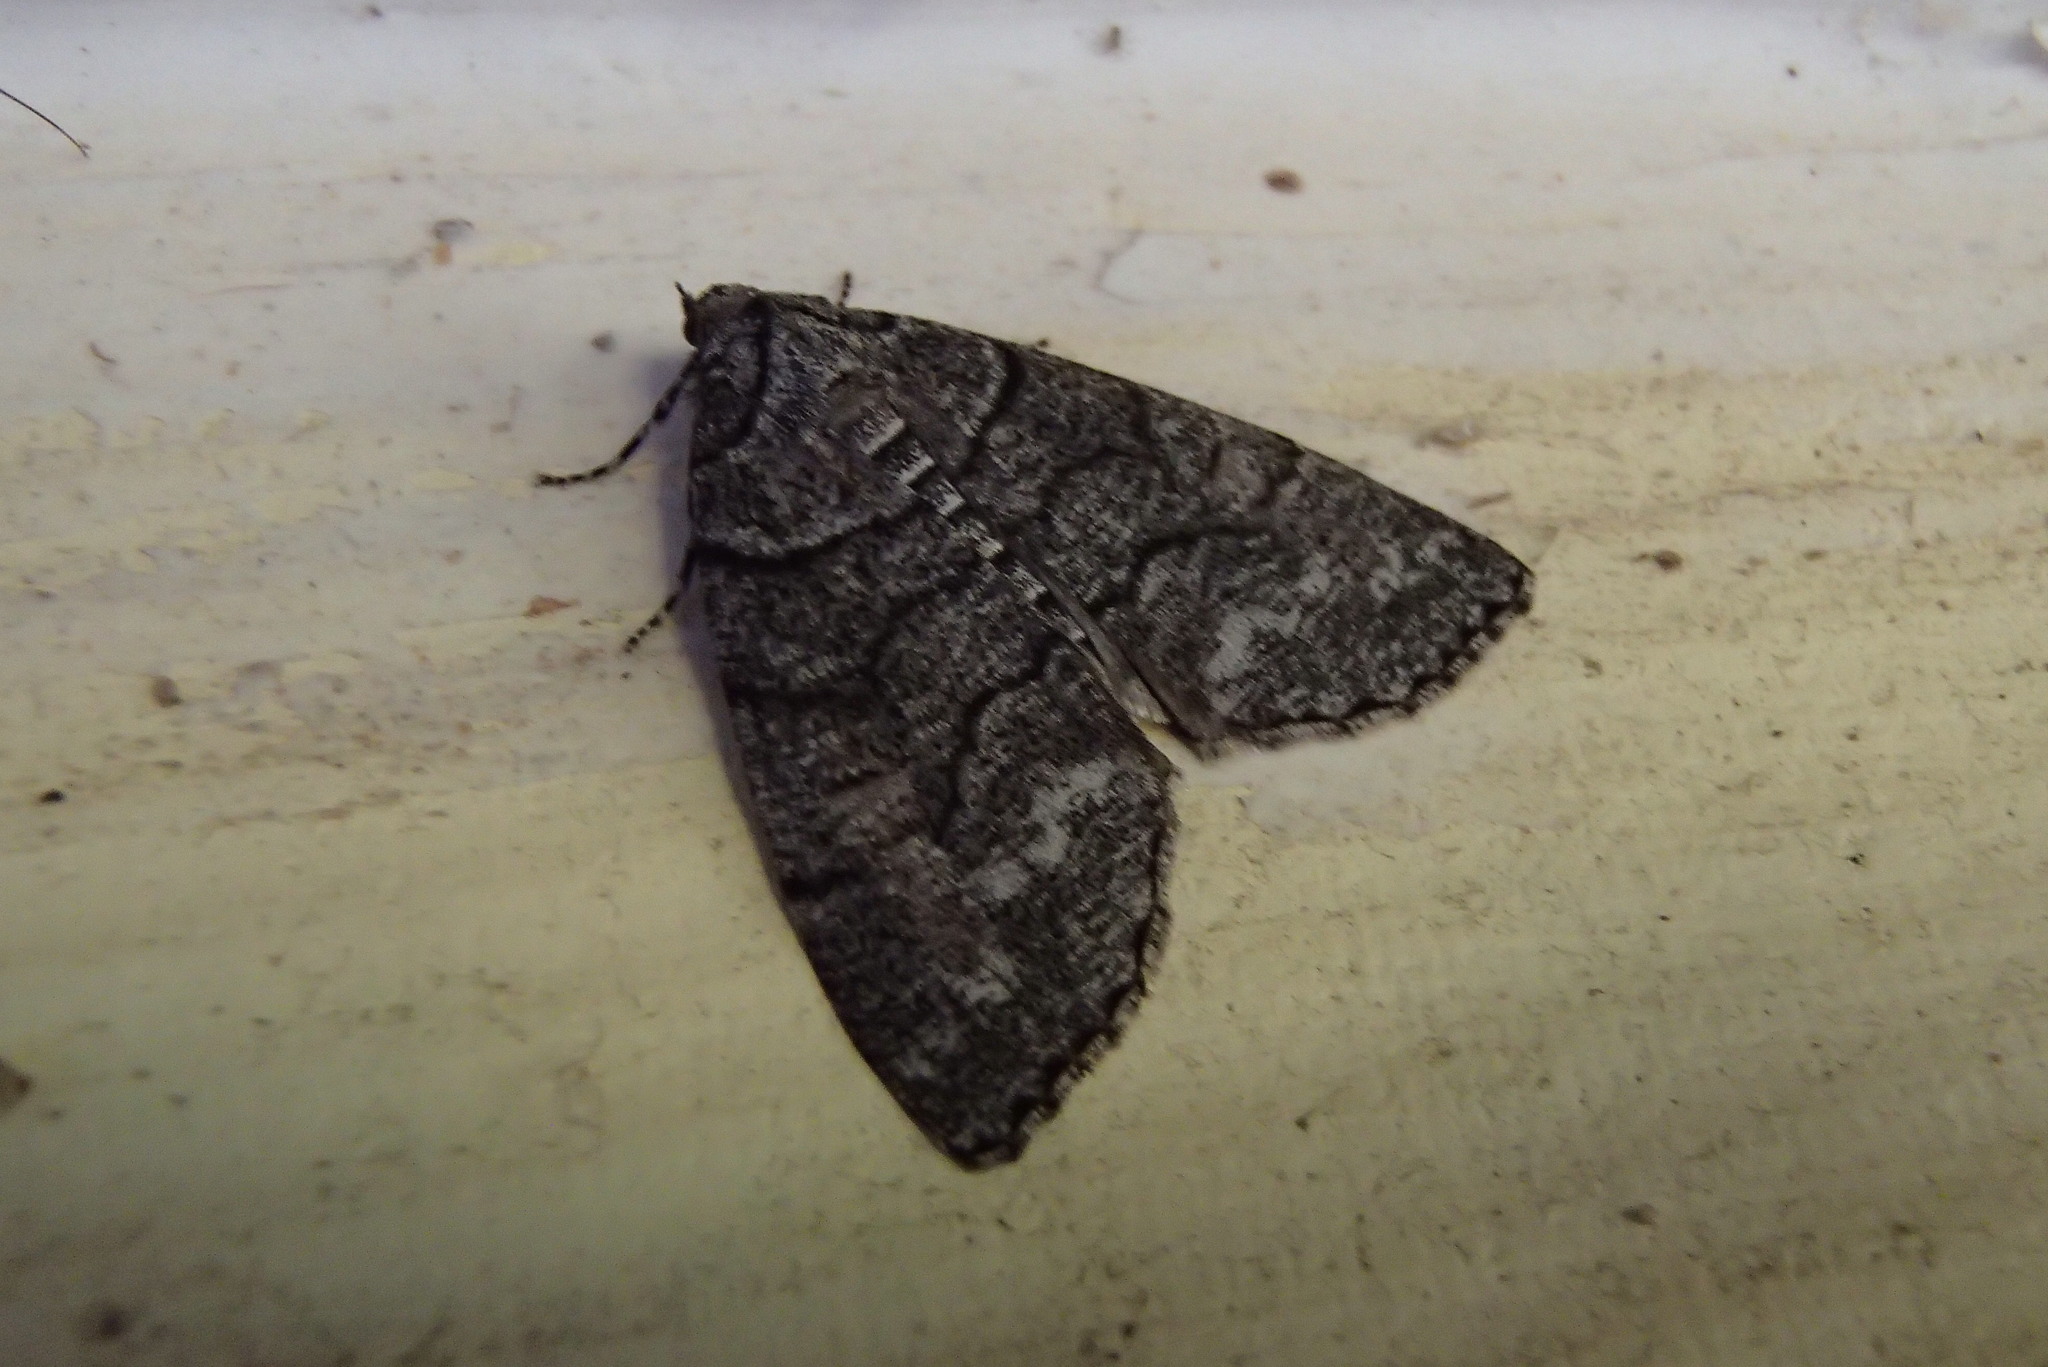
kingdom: Animalia
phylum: Arthropoda
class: Insecta
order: Lepidoptera
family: Geometridae
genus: Smyriodes
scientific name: Smyriodes aplectaria
